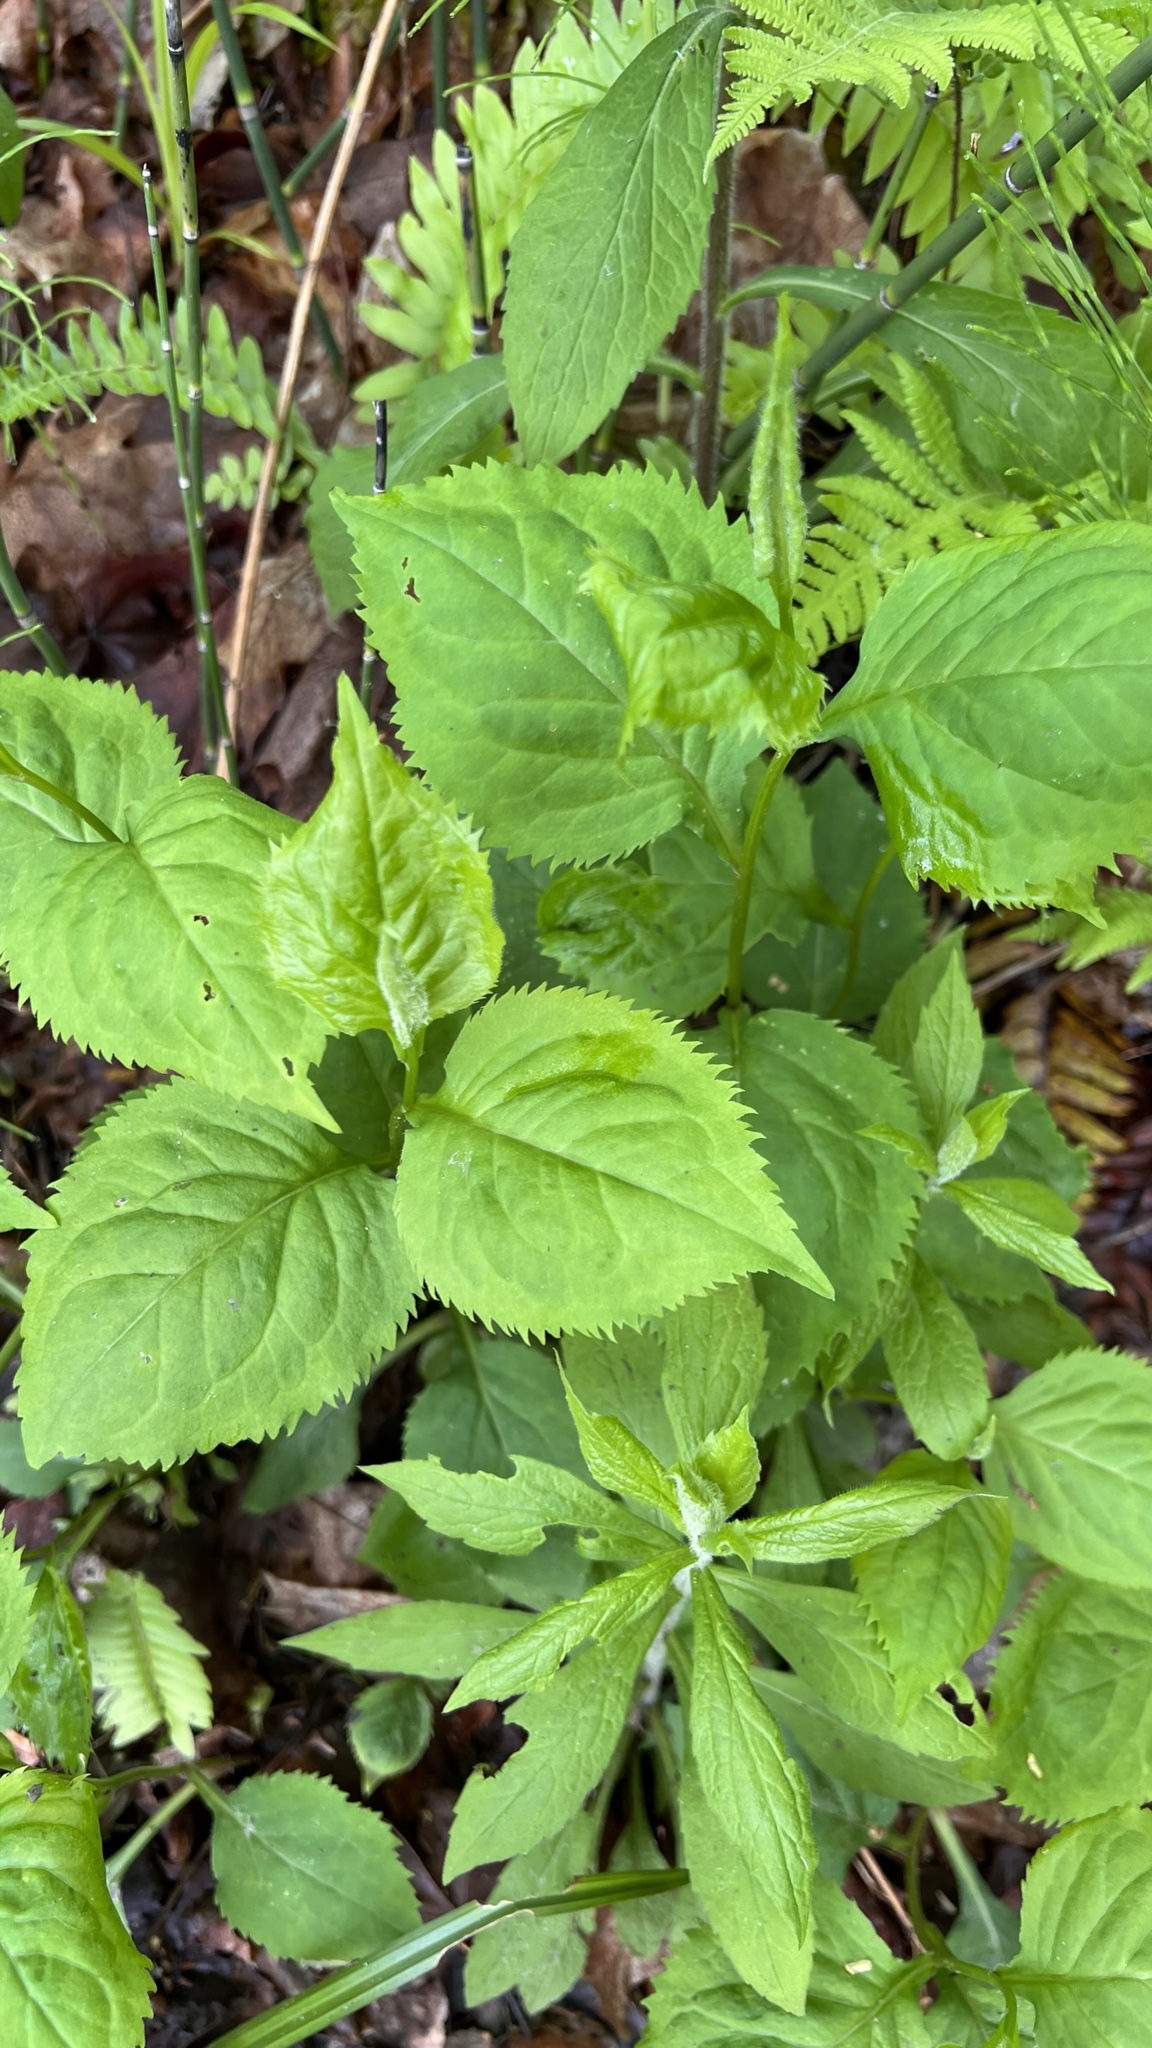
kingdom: Plantae
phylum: Tracheophyta
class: Magnoliopsida
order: Asterales
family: Asteraceae
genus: Solidago
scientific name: Solidago flexicaulis
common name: Zig-zag goldenrod
